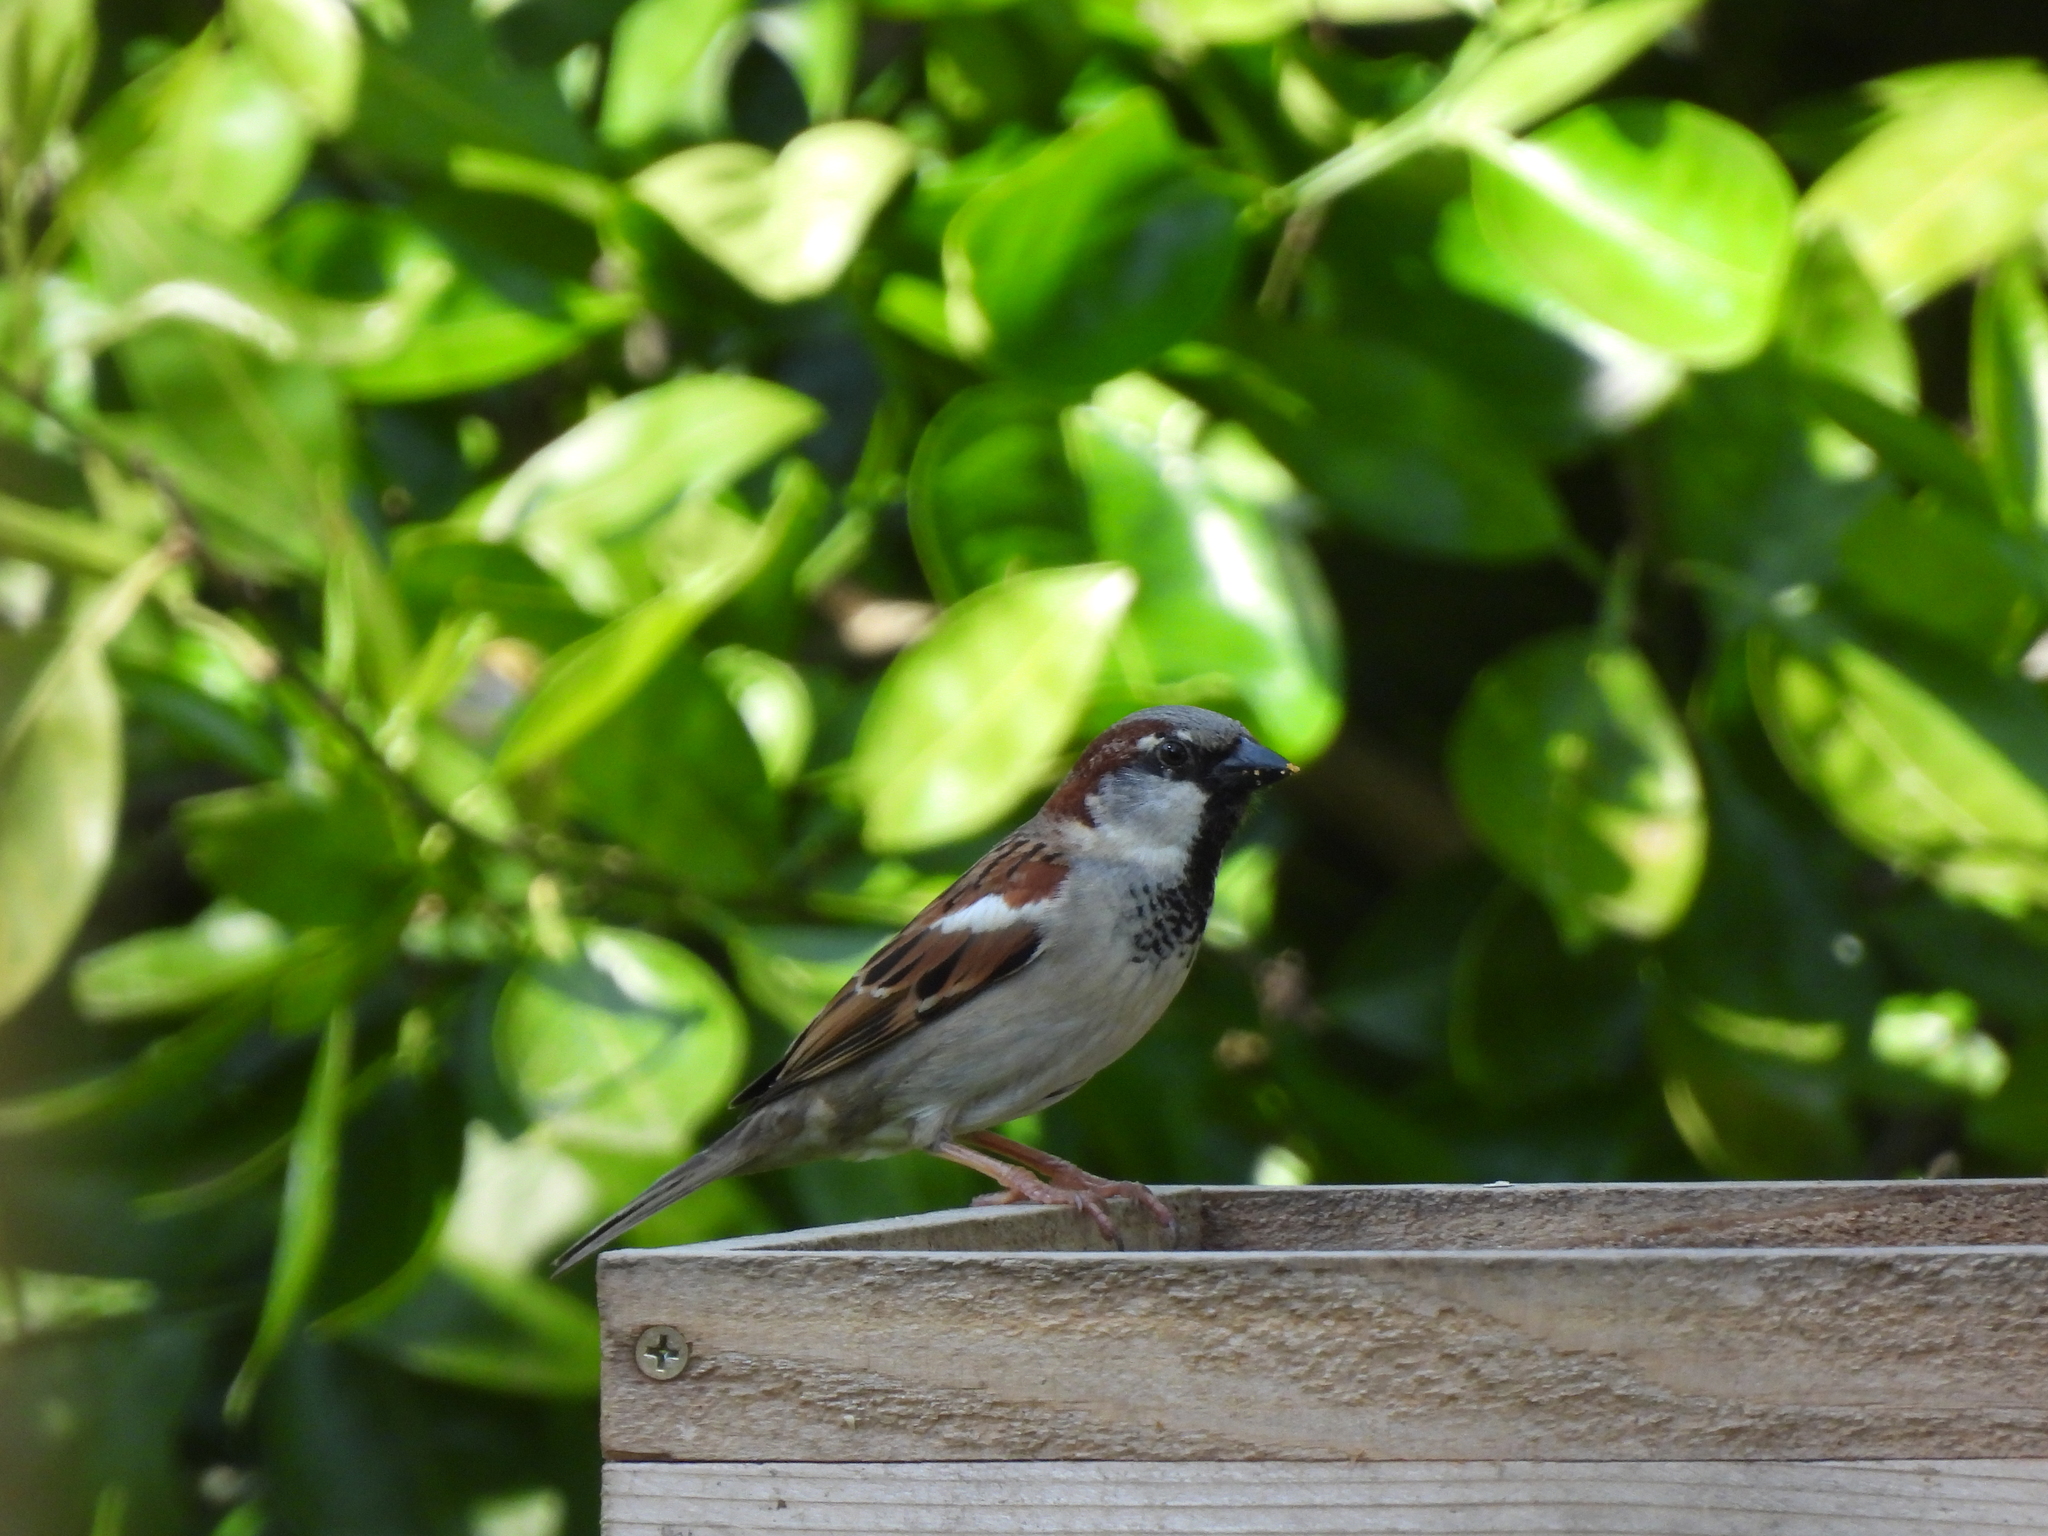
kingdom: Animalia
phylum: Chordata
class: Aves
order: Passeriformes
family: Passeridae
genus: Passer
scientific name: Passer domesticus
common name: House sparrow
